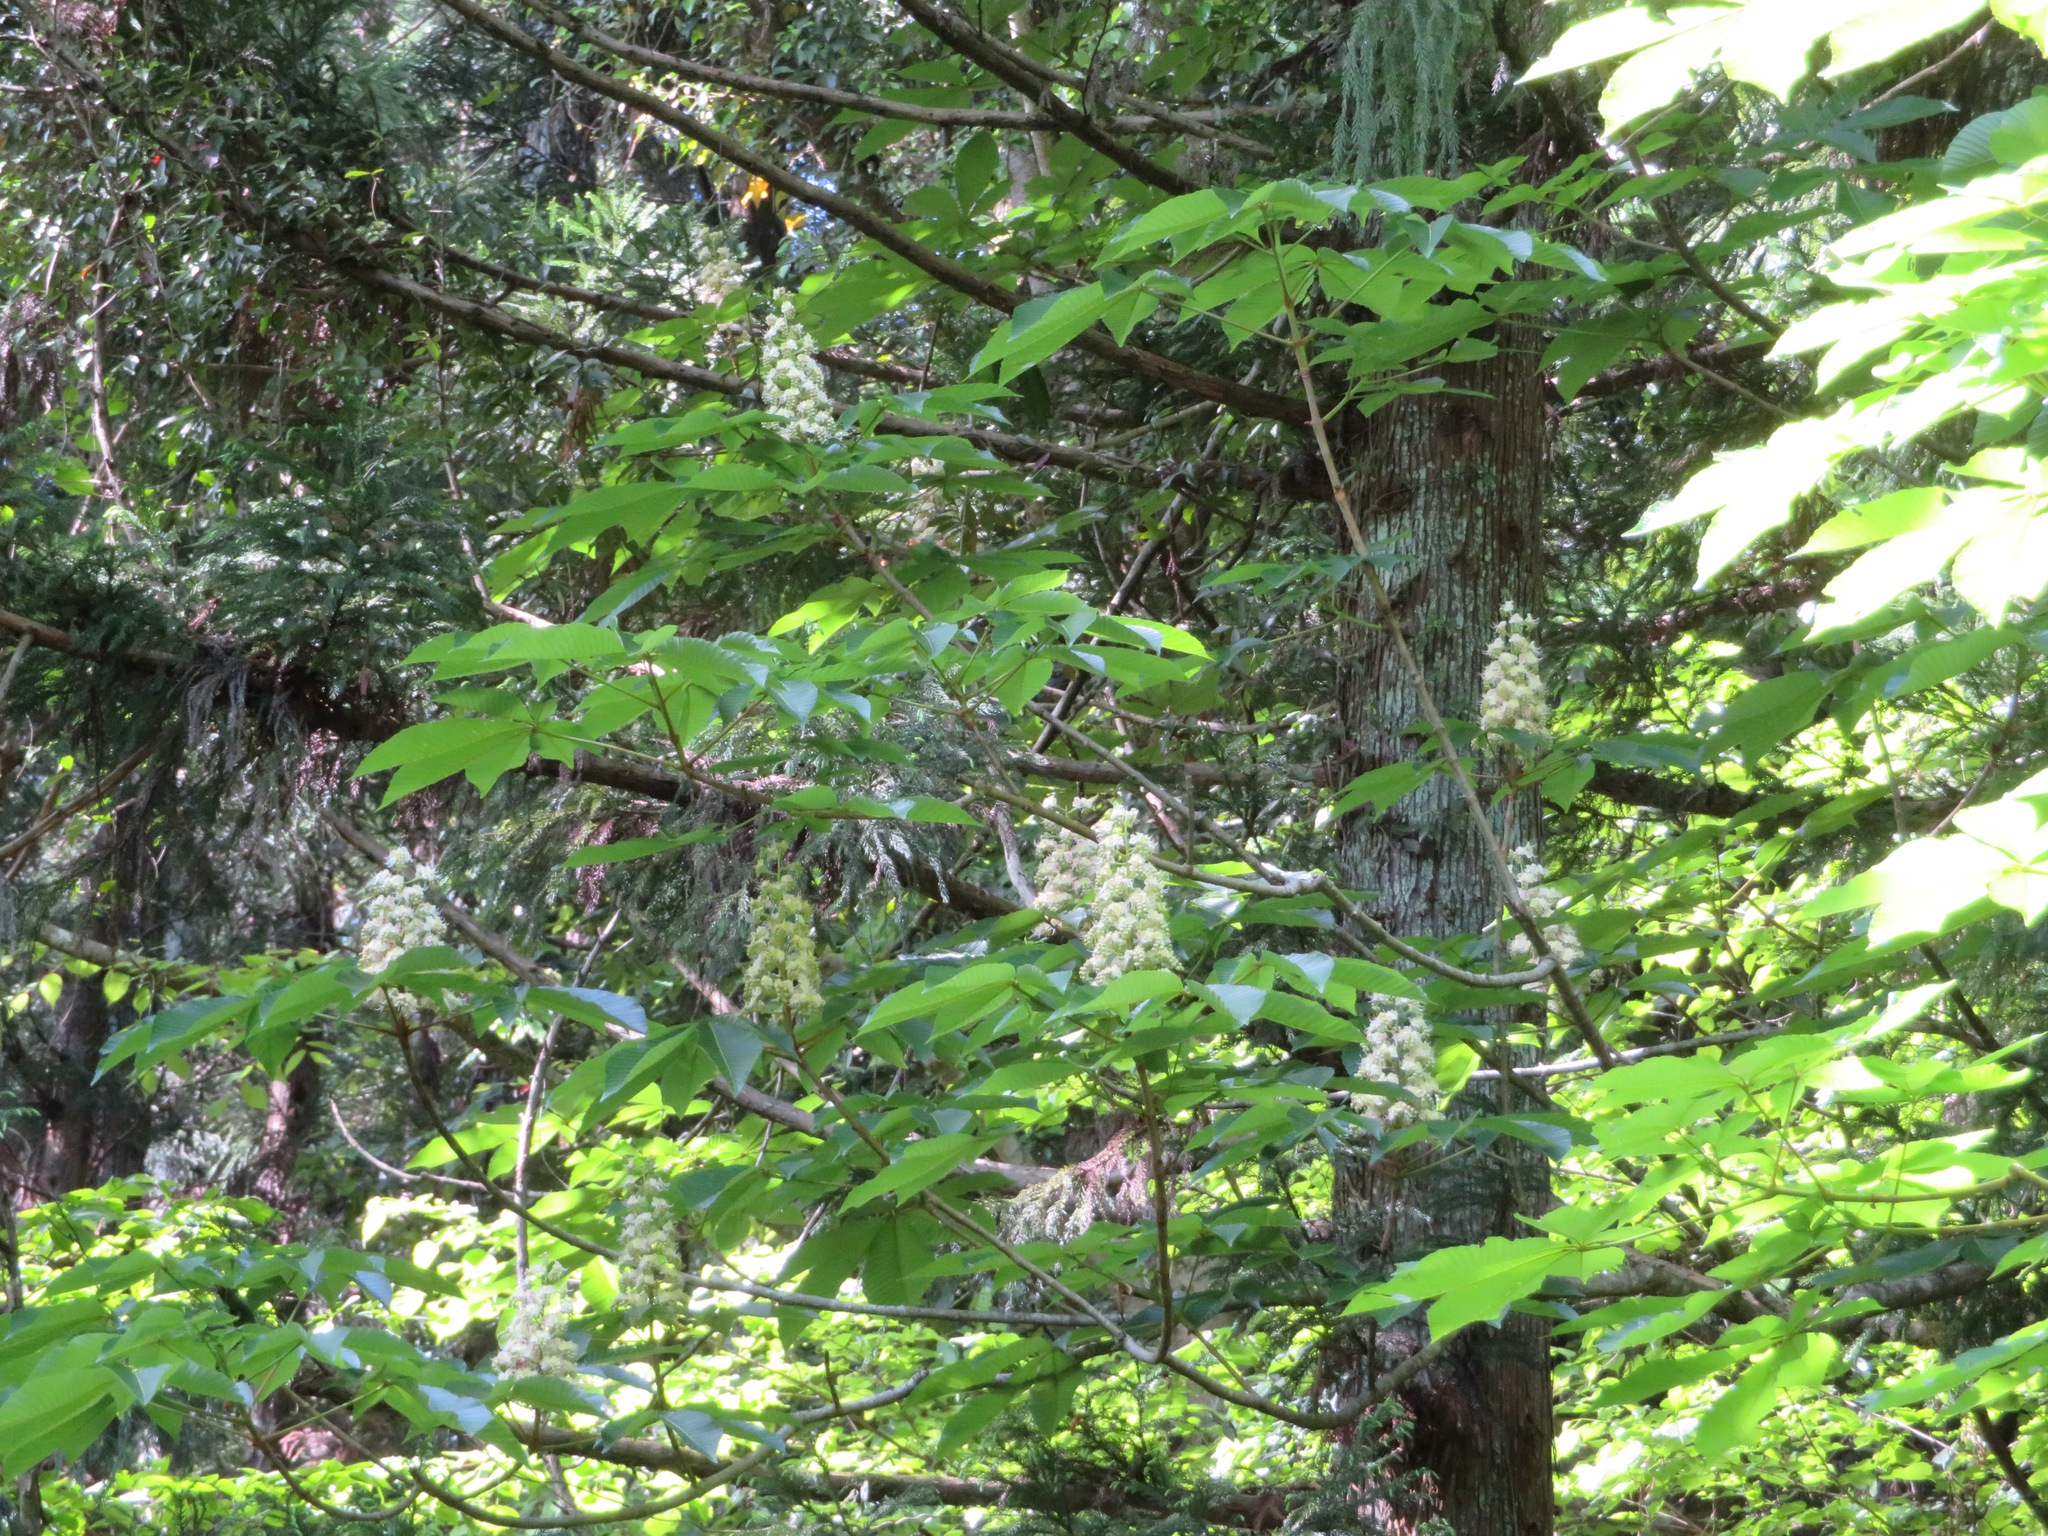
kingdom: Plantae
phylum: Tracheophyta
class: Magnoliopsida
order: Sapindales
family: Sapindaceae
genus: Aesculus
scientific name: Aesculus turbinata
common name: Japanese horse-chestnut
